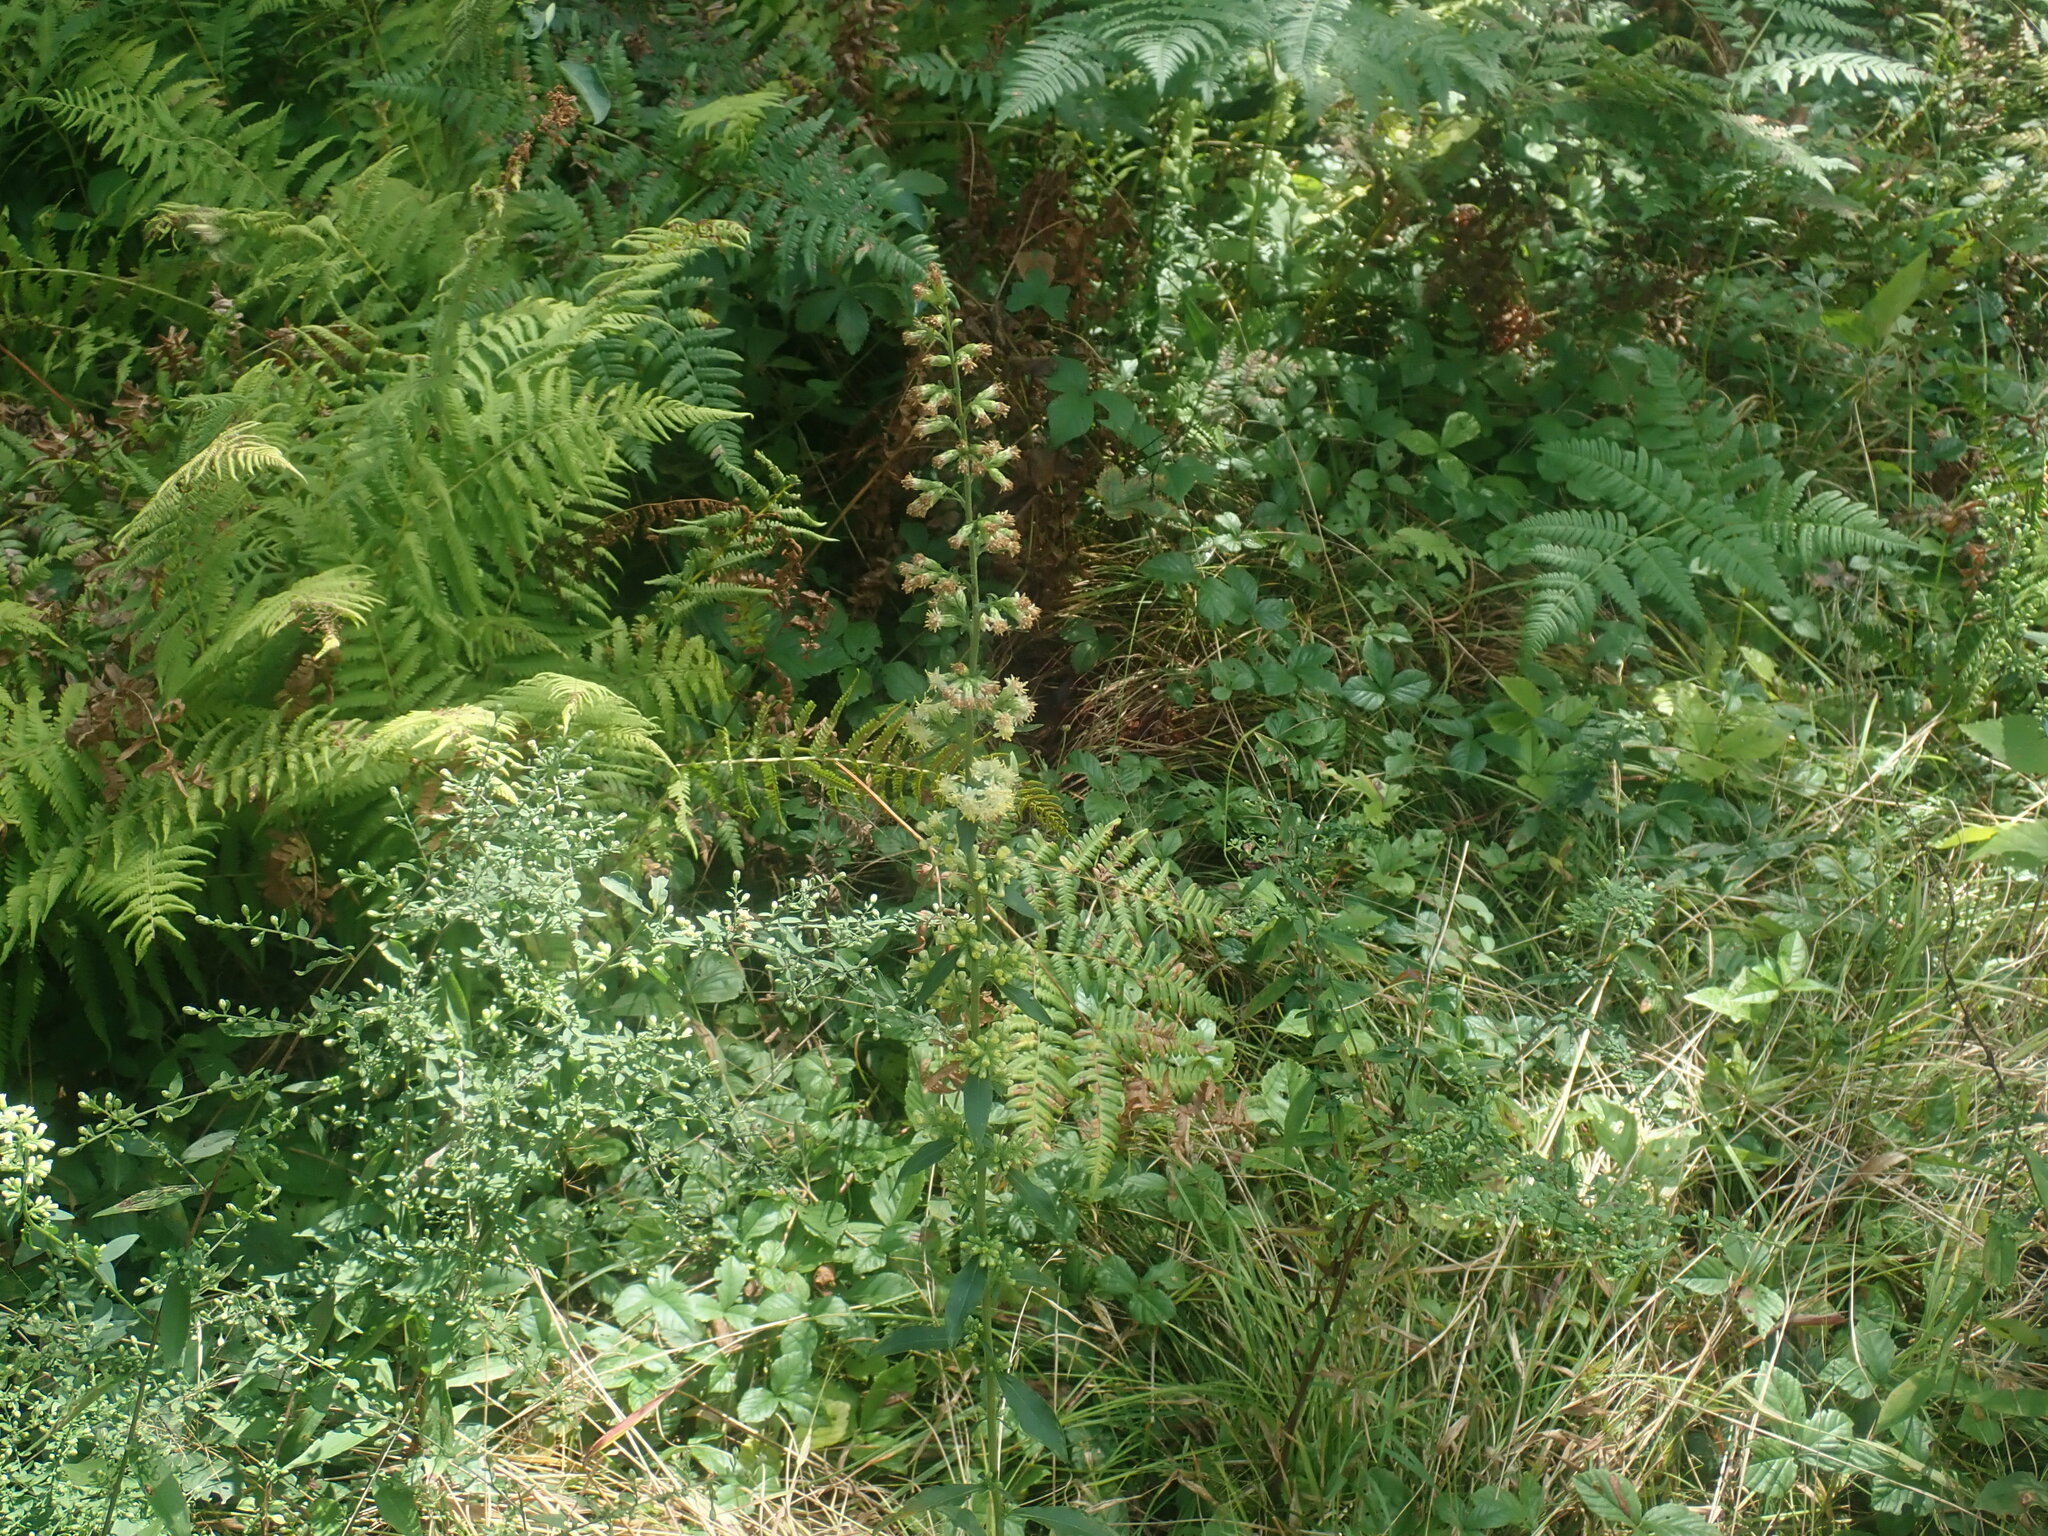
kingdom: Plantae
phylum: Tracheophyta
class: Magnoliopsida
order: Asterales
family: Asteraceae
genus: Solidago
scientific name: Solidago bicolor
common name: Silverrod
